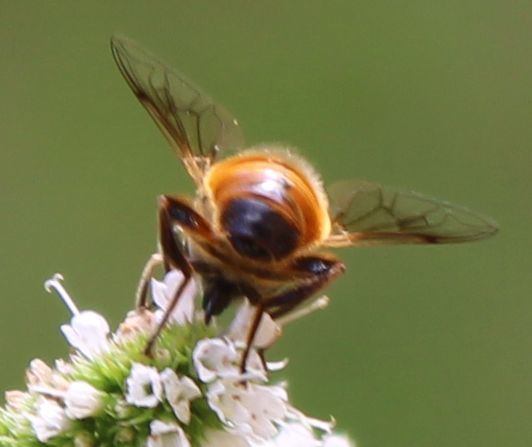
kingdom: Animalia
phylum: Arthropoda
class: Insecta
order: Diptera
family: Syrphidae
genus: Eristalis
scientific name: Eristalis tenax
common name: Drone fly
